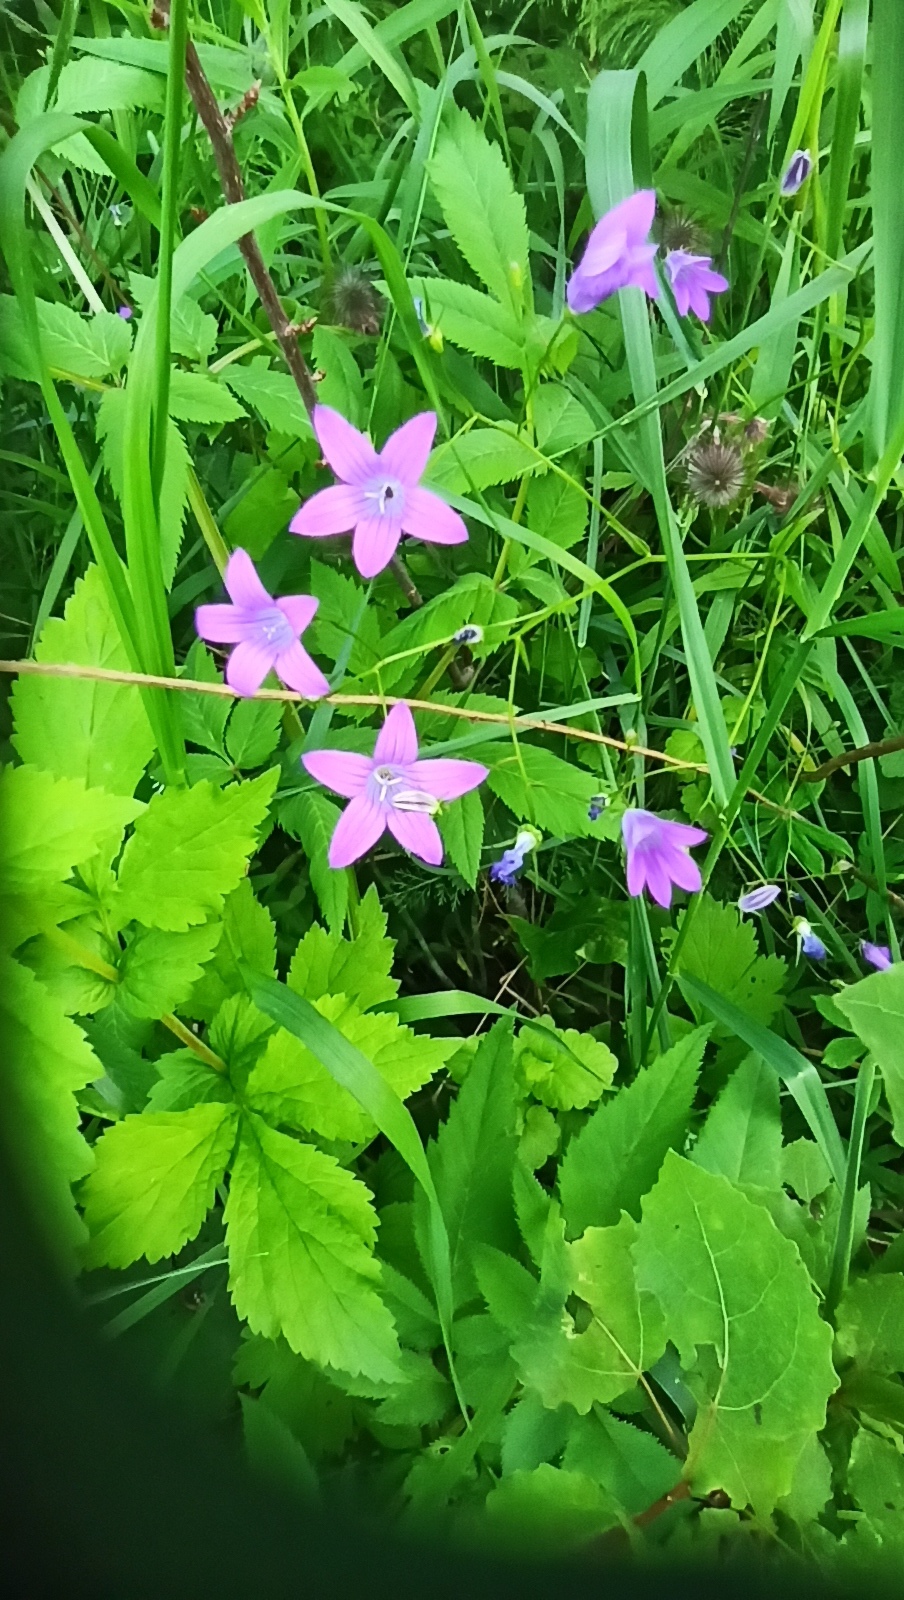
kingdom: Plantae
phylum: Tracheophyta
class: Magnoliopsida
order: Asterales
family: Campanulaceae
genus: Campanula
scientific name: Campanula patula
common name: Spreading bellflower
